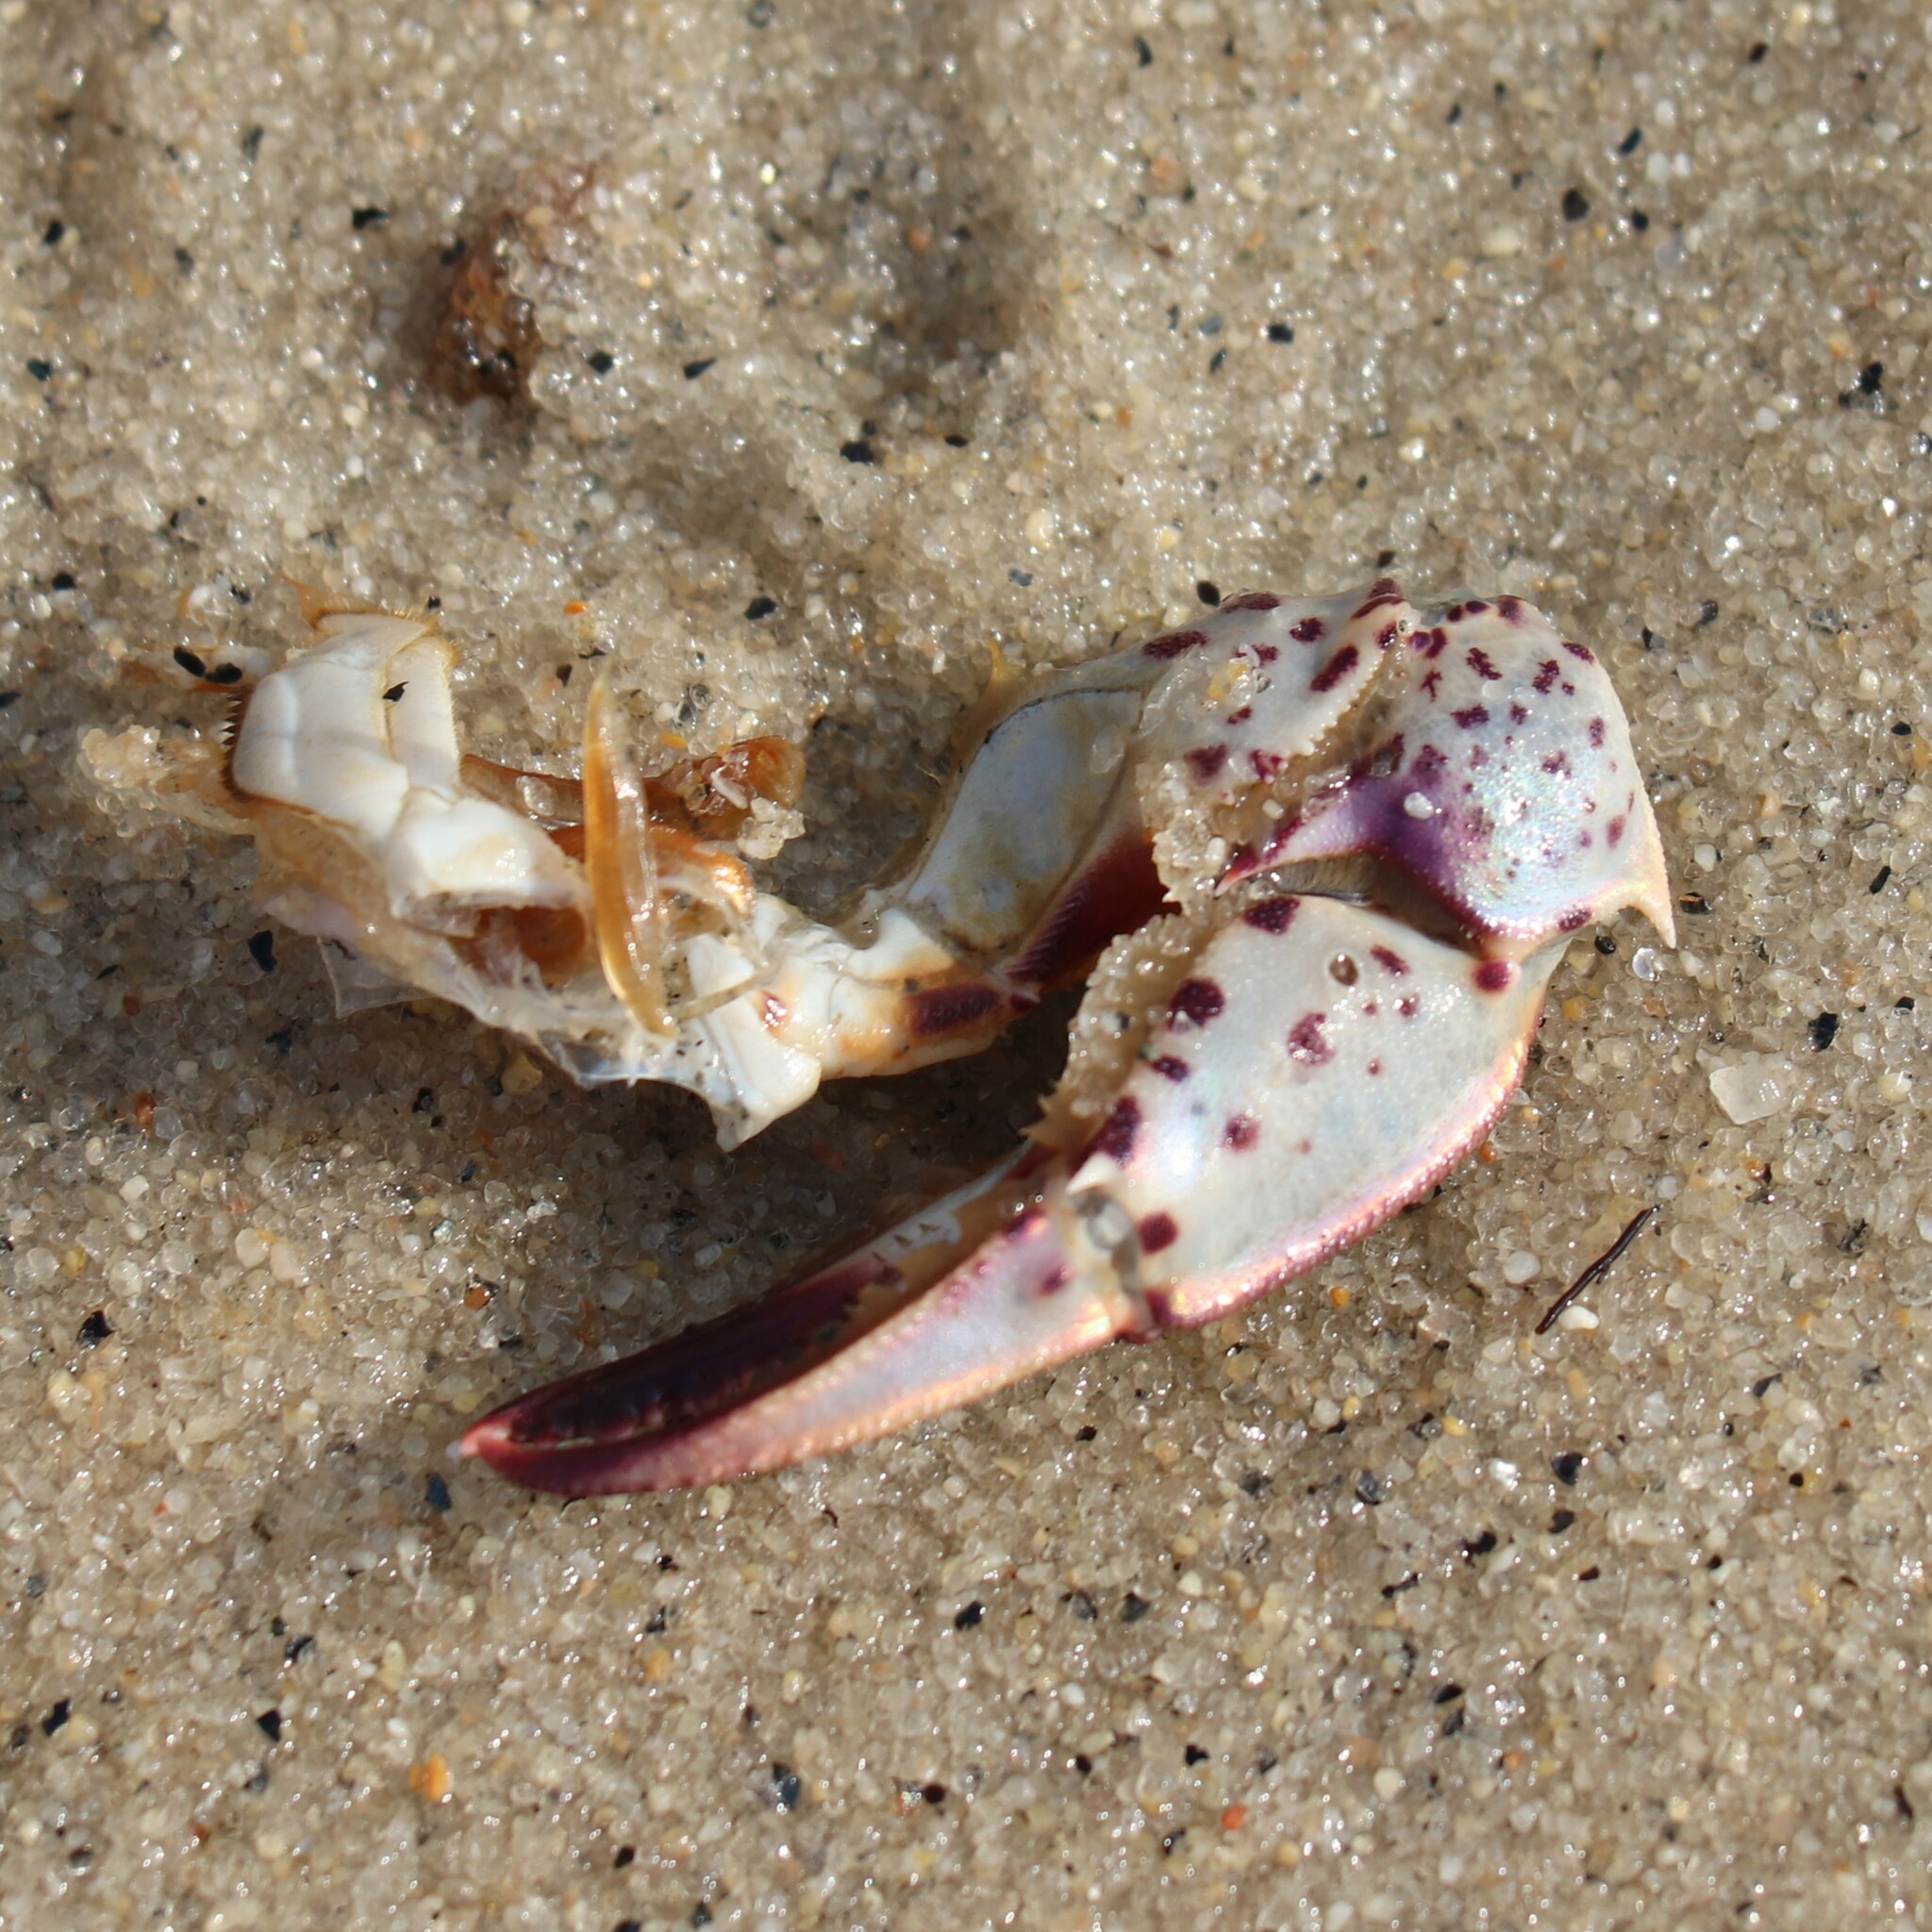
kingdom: Animalia
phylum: Arthropoda
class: Malacostraca
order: Decapoda
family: Ovalipidae
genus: Ovalipes
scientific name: Ovalipes ocellatus
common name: Lady crab
